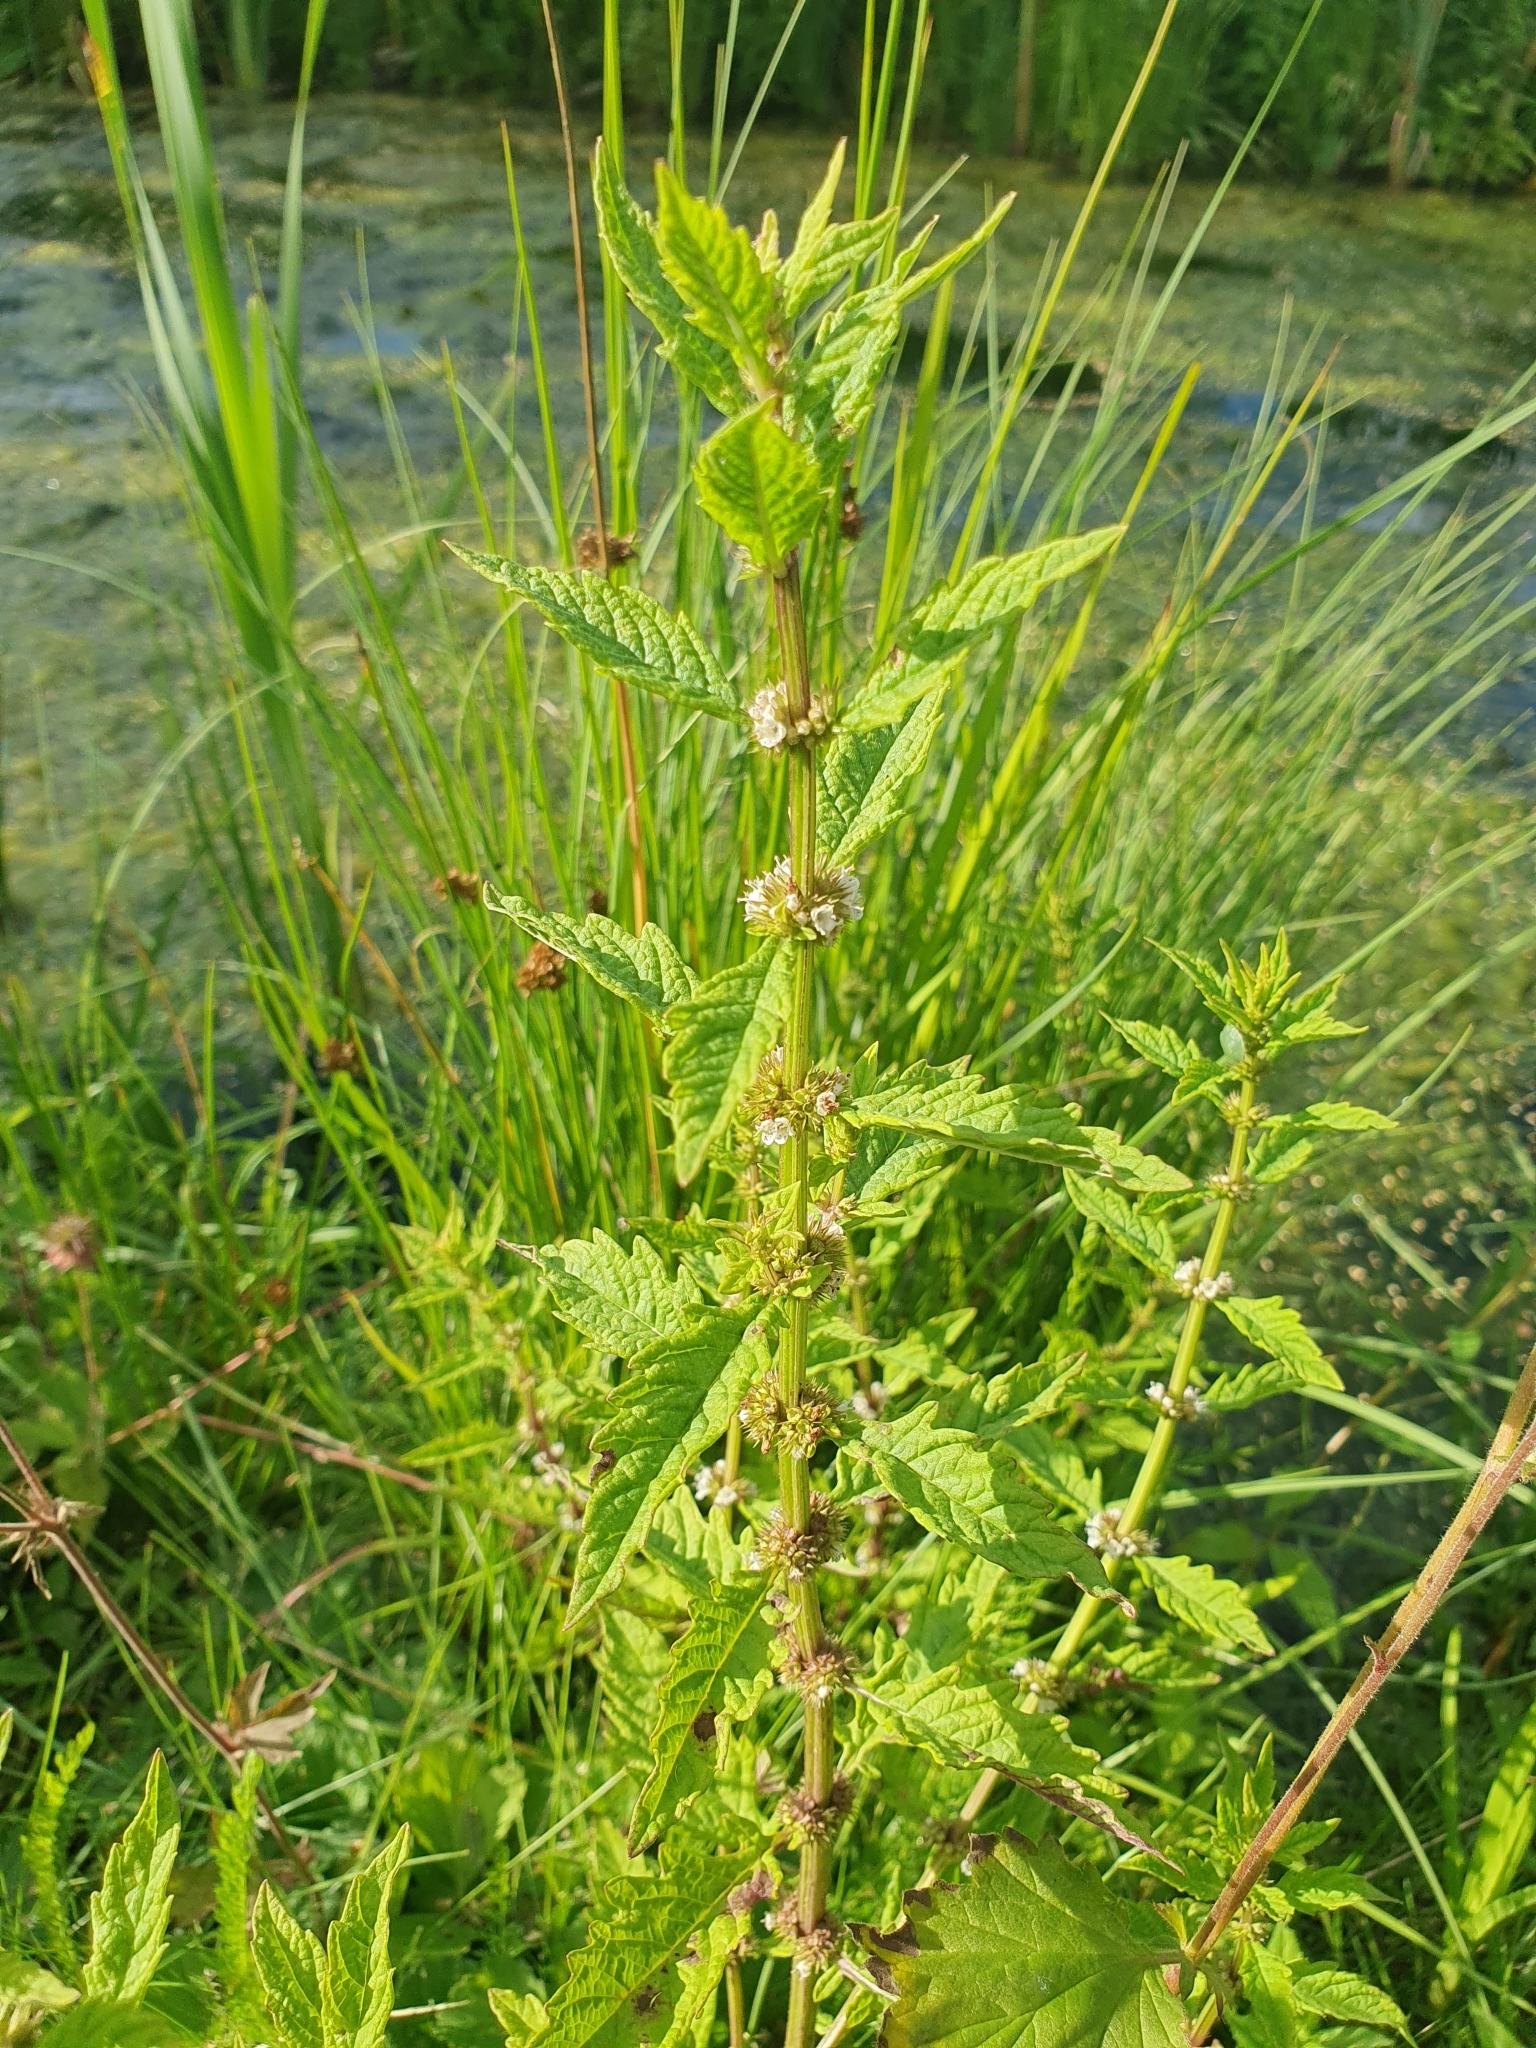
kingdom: Plantae
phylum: Tracheophyta
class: Magnoliopsida
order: Lamiales
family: Lamiaceae
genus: Lycopus
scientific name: Lycopus europaeus
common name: European bugleweed
